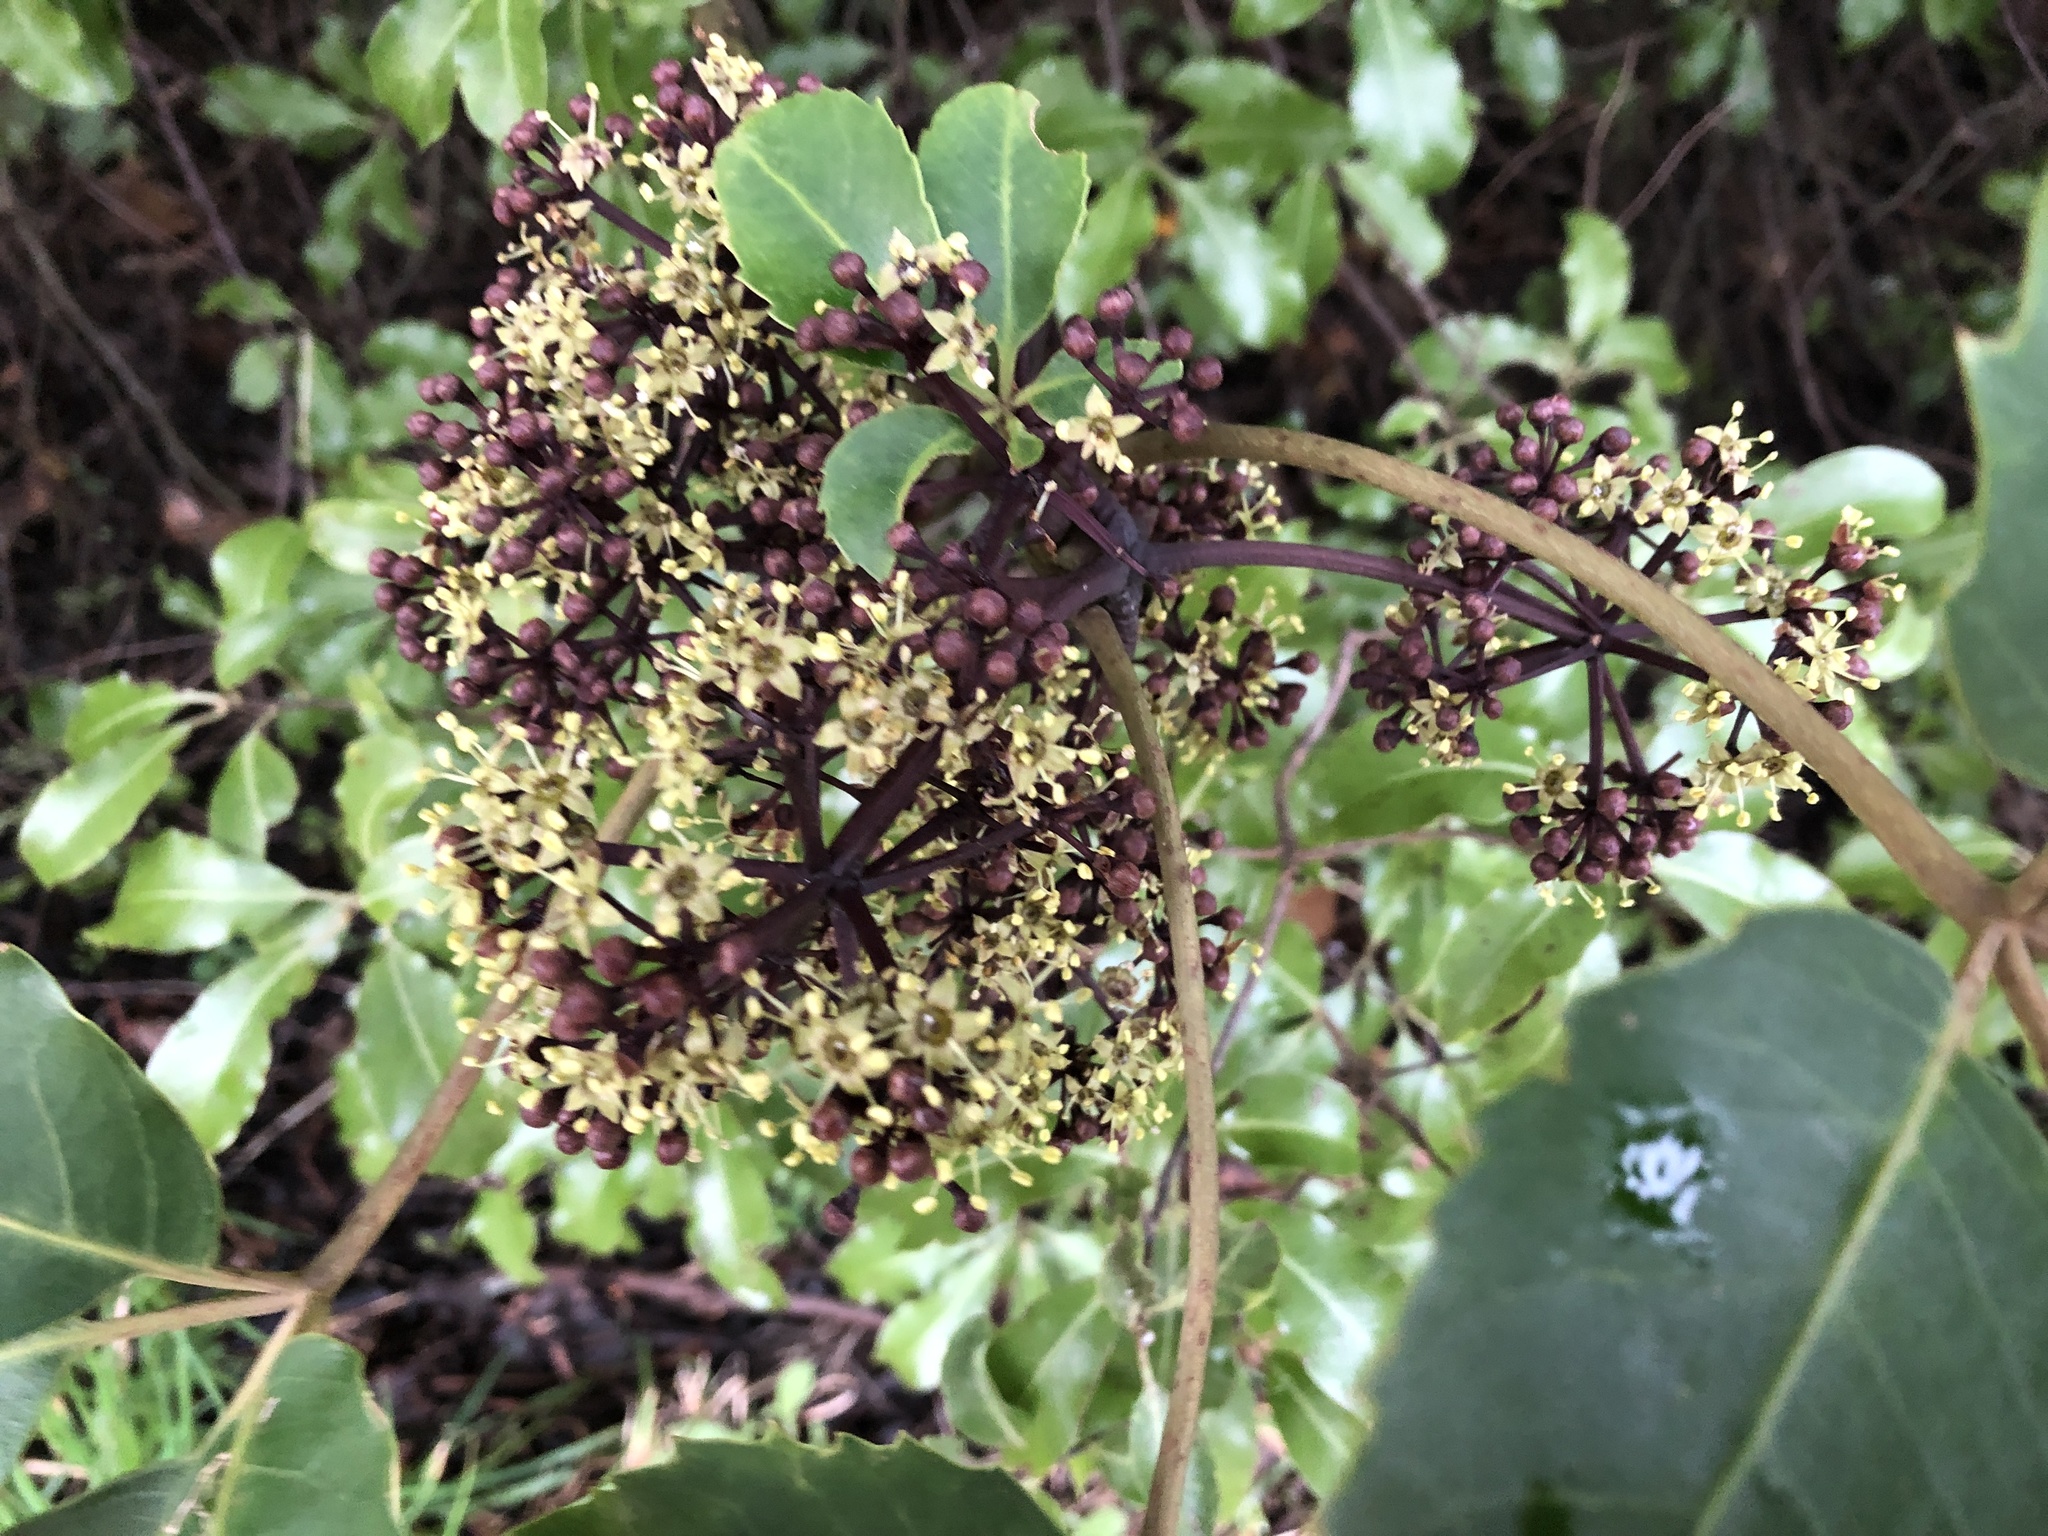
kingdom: Plantae
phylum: Tracheophyta
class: Magnoliopsida
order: Apiales
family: Araliaceae
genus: Neopanax
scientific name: Neopanax arboreus
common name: Five-fingers
